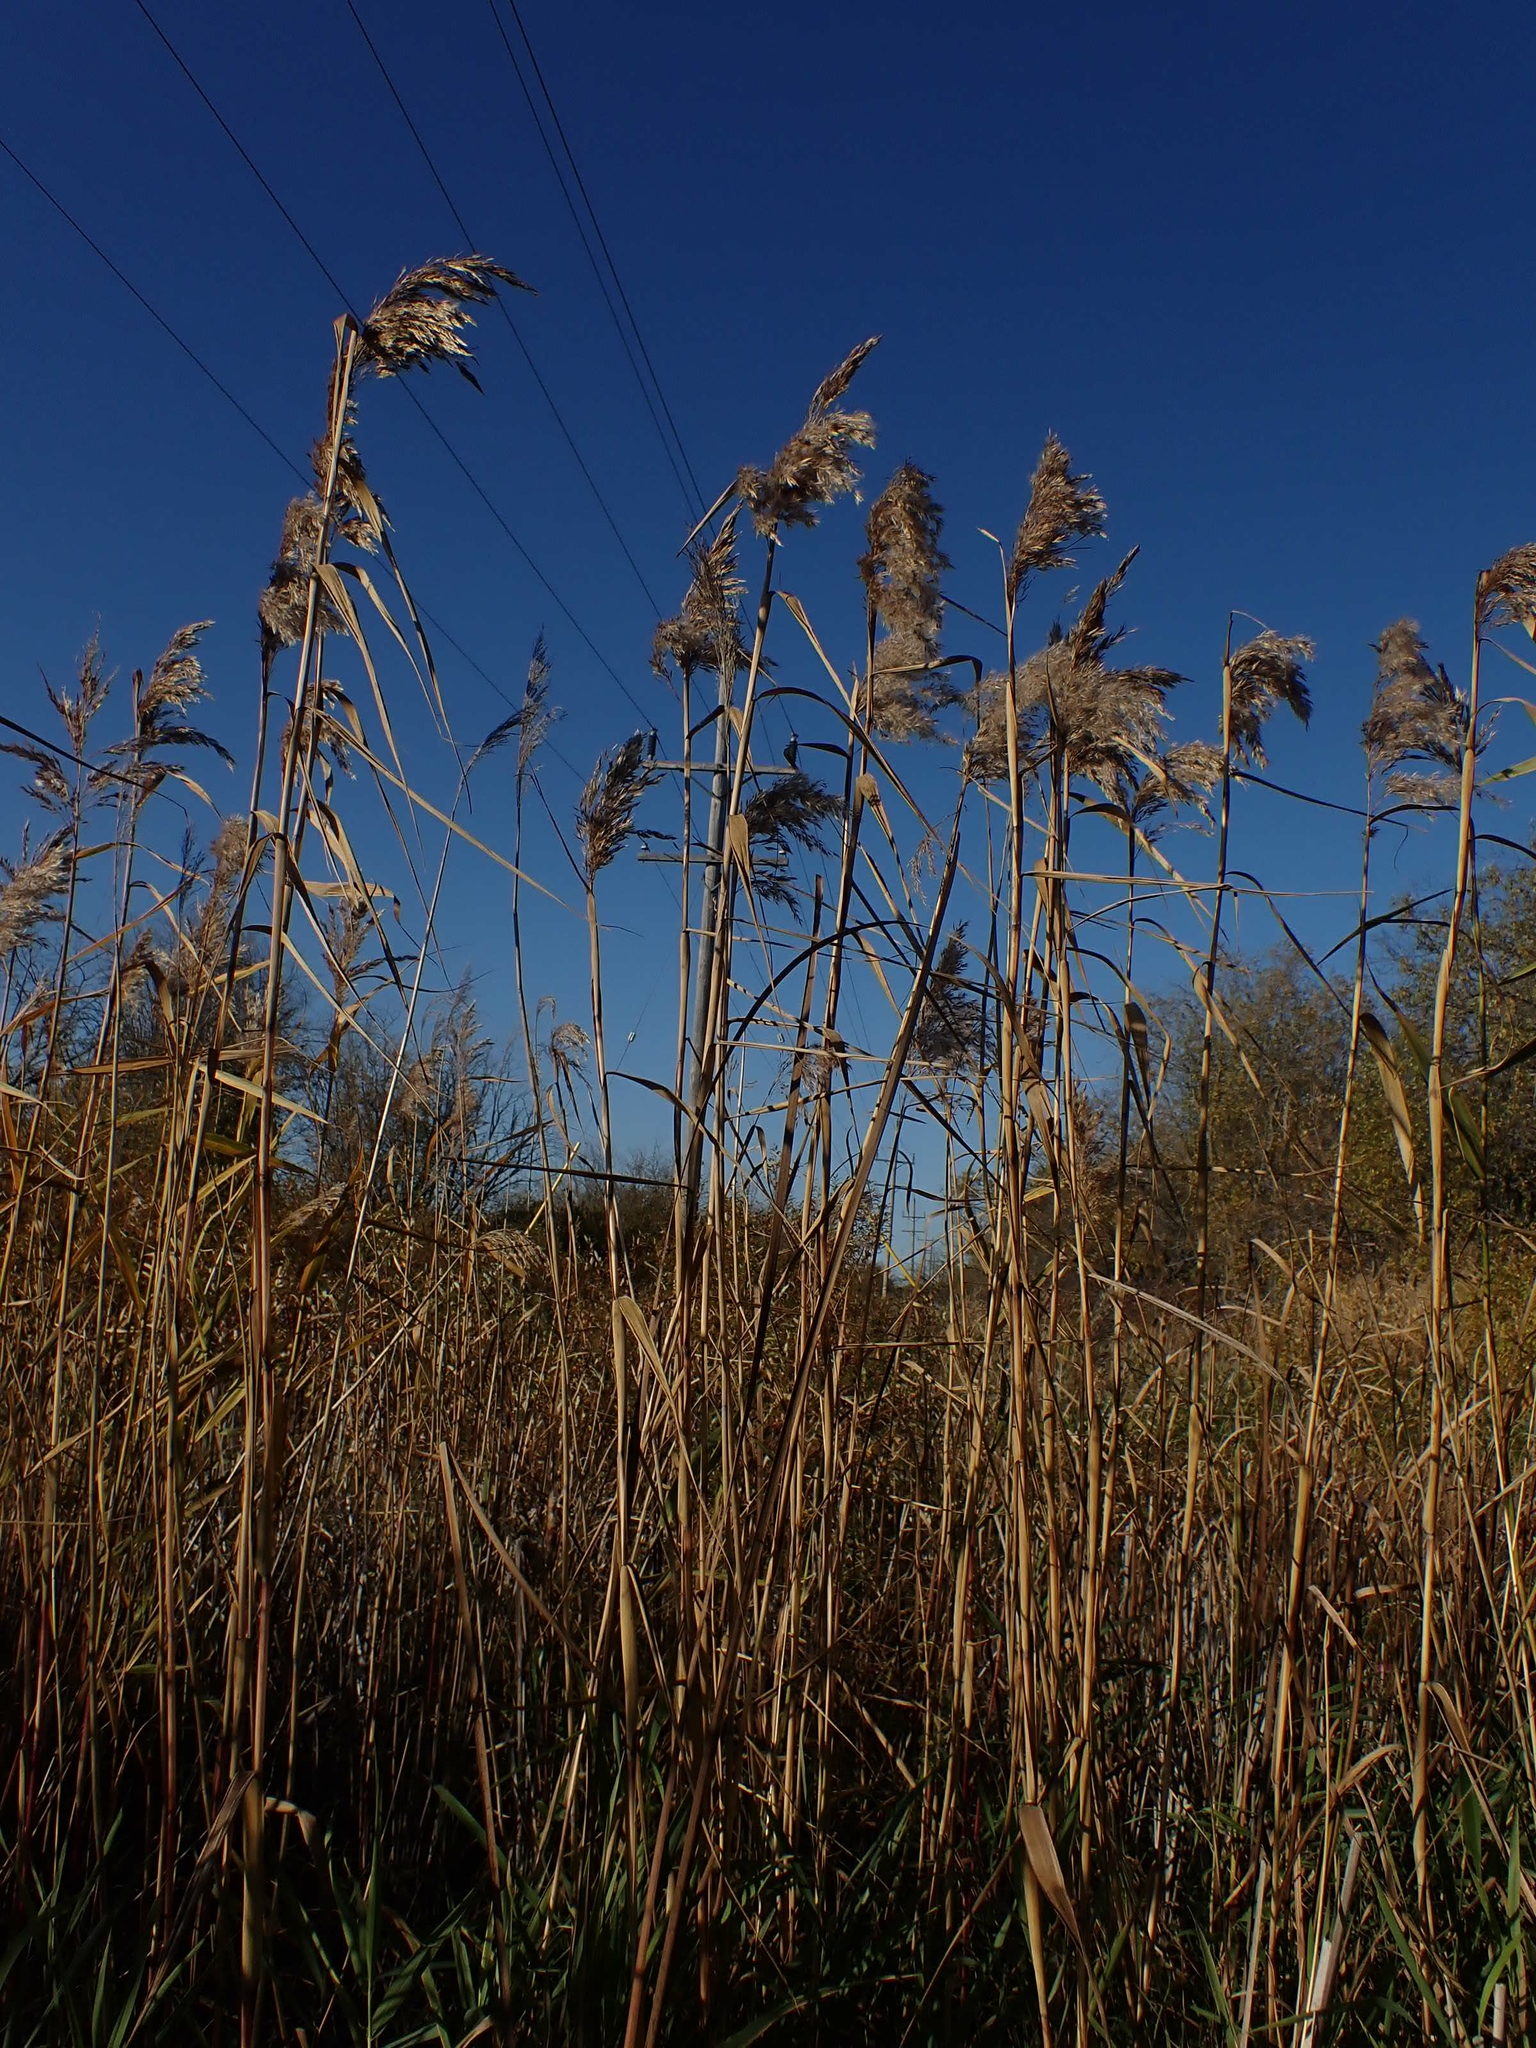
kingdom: Plantae
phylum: Tracheophyta
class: Liliopsida
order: Poales
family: Poaceae
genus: Phragmites
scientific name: Phragmites australis
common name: Common reed
